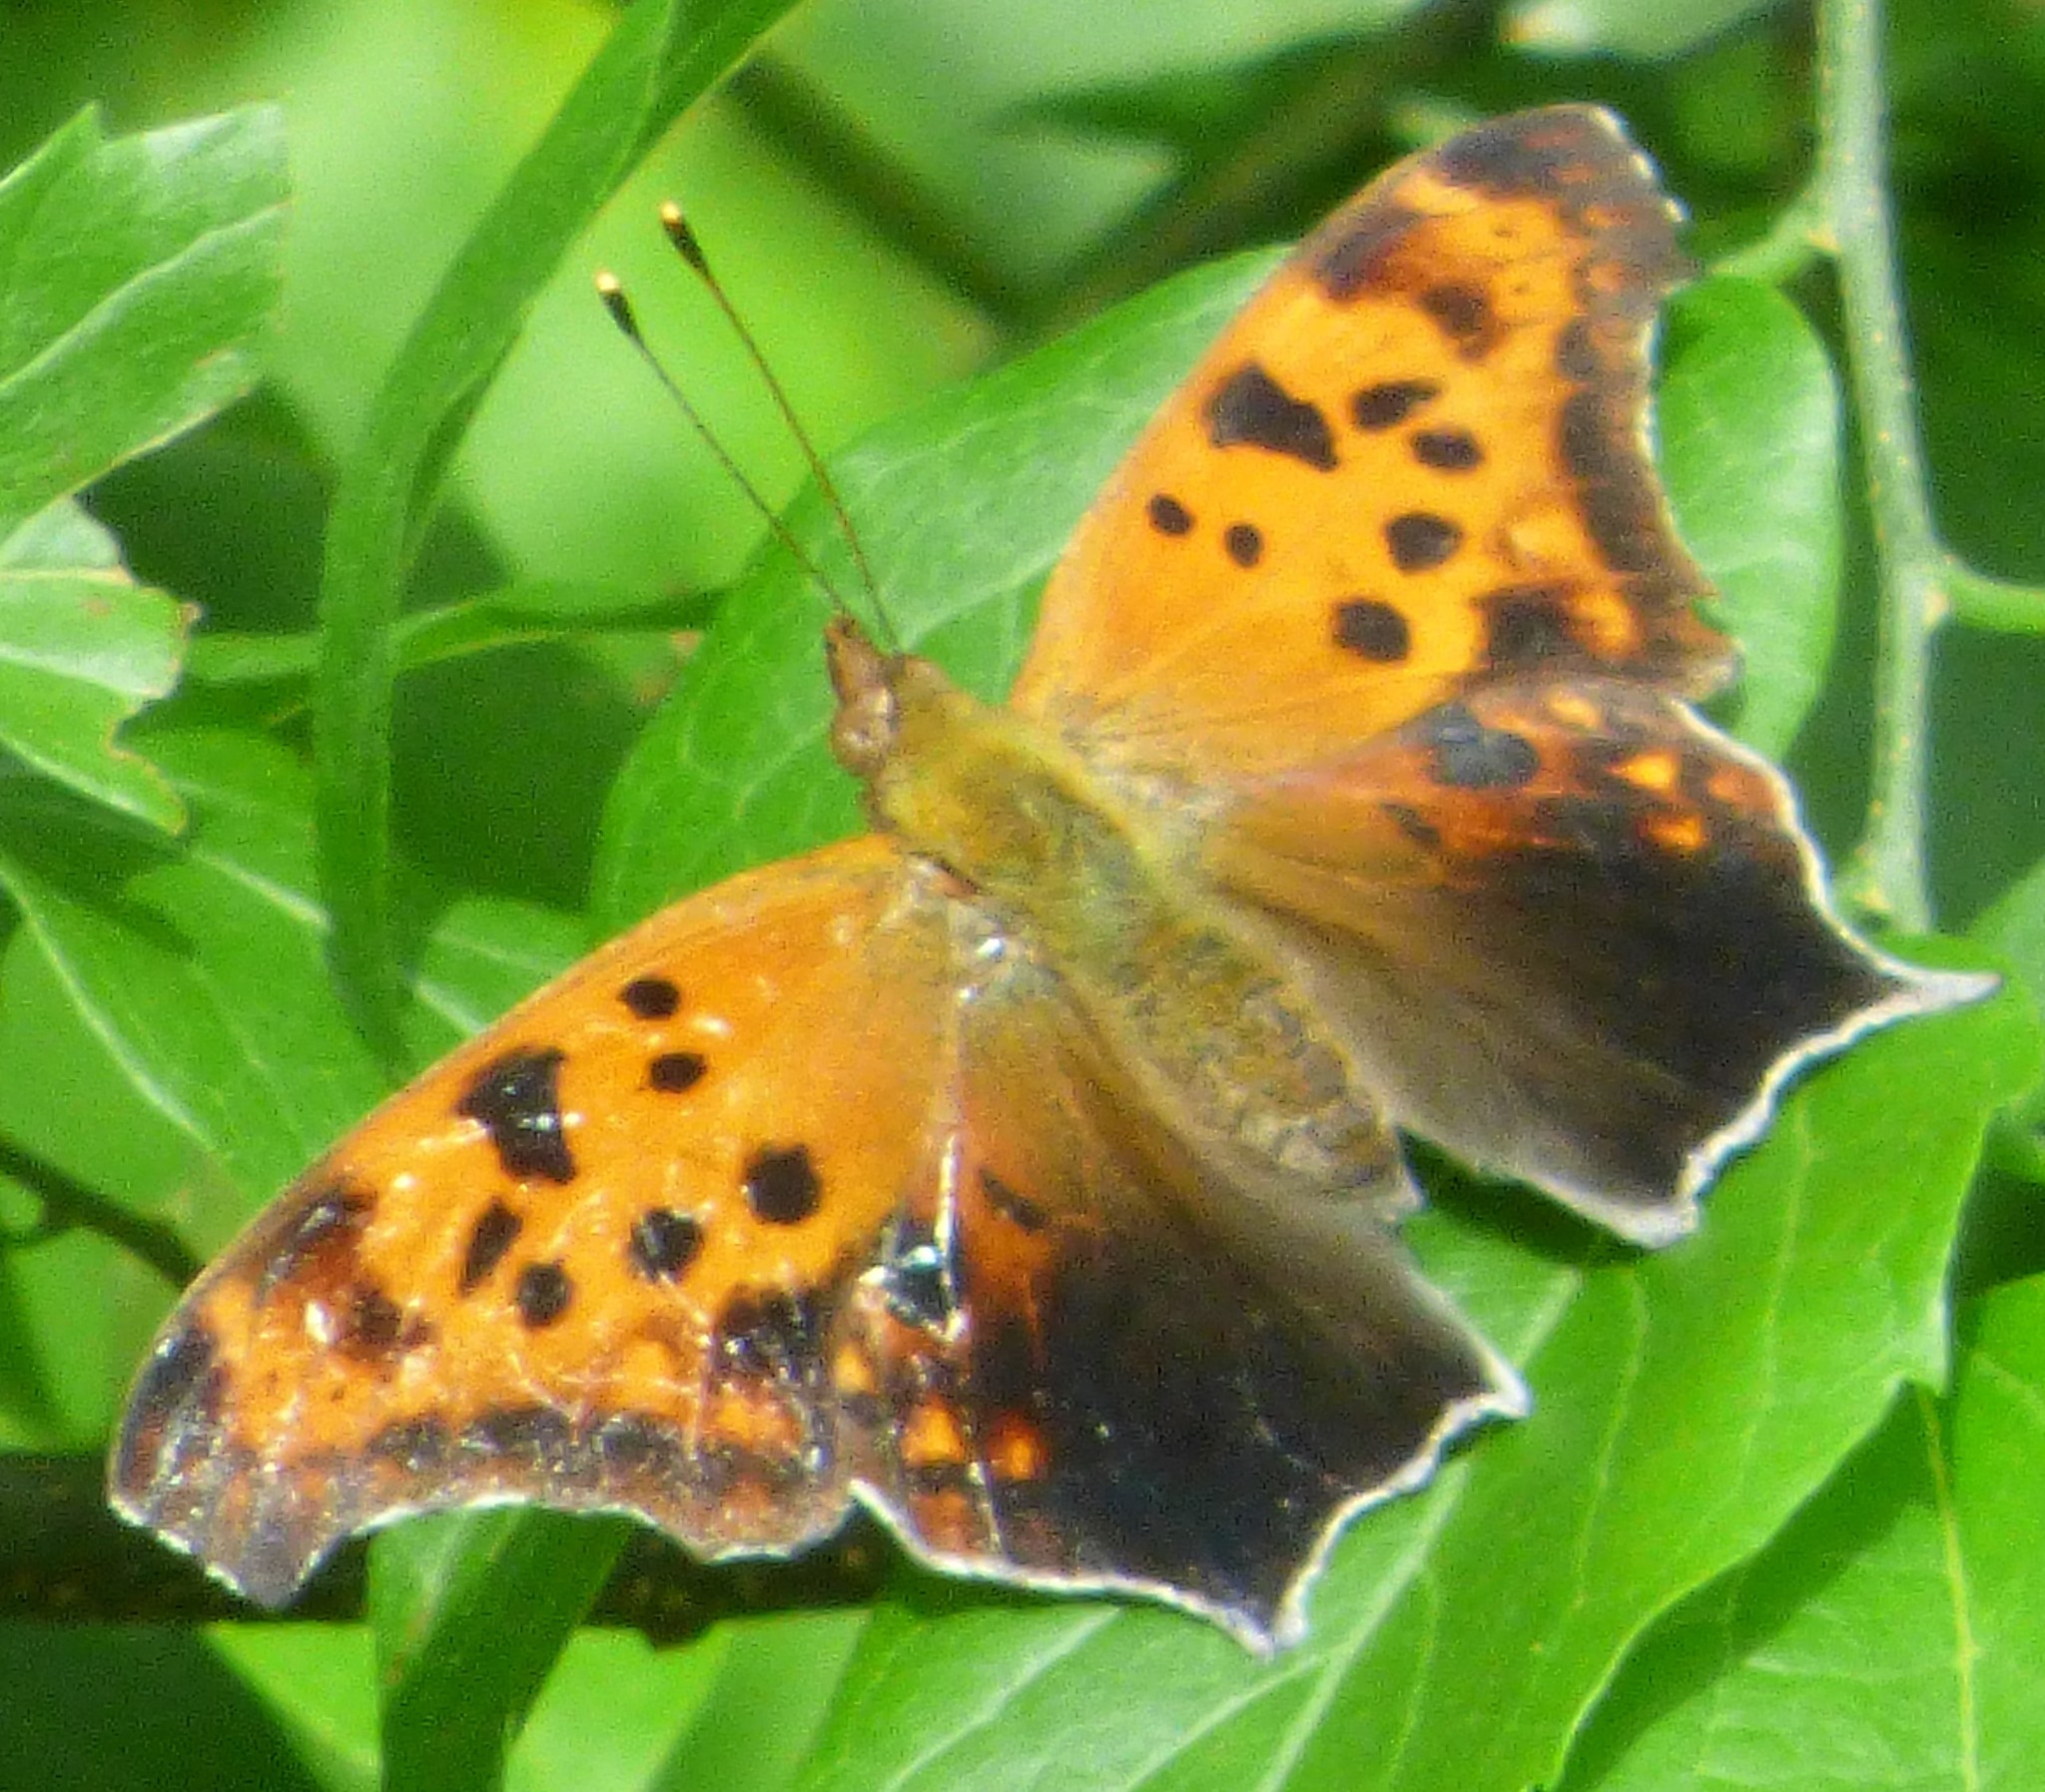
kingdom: Animalia
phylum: Arthropoda
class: Insecta
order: Lepidoptera
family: Nymphalidae
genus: Polygonia
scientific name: Polygonia interrogationis
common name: Question mark
